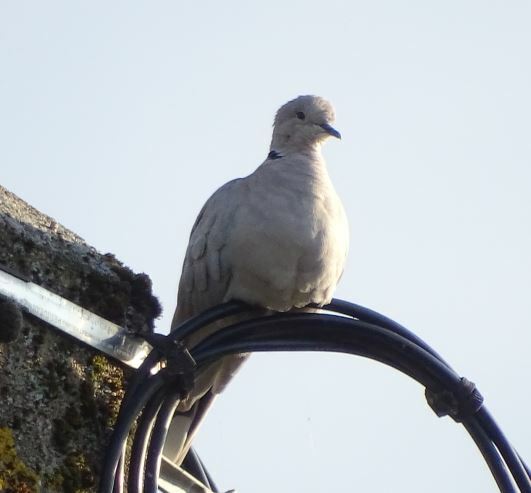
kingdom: Animalia
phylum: Chordata
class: Aves
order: Columbiformes
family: Columbidae
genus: Streptopelia
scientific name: Streptopelia decaocto
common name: Eurasian collared dove
